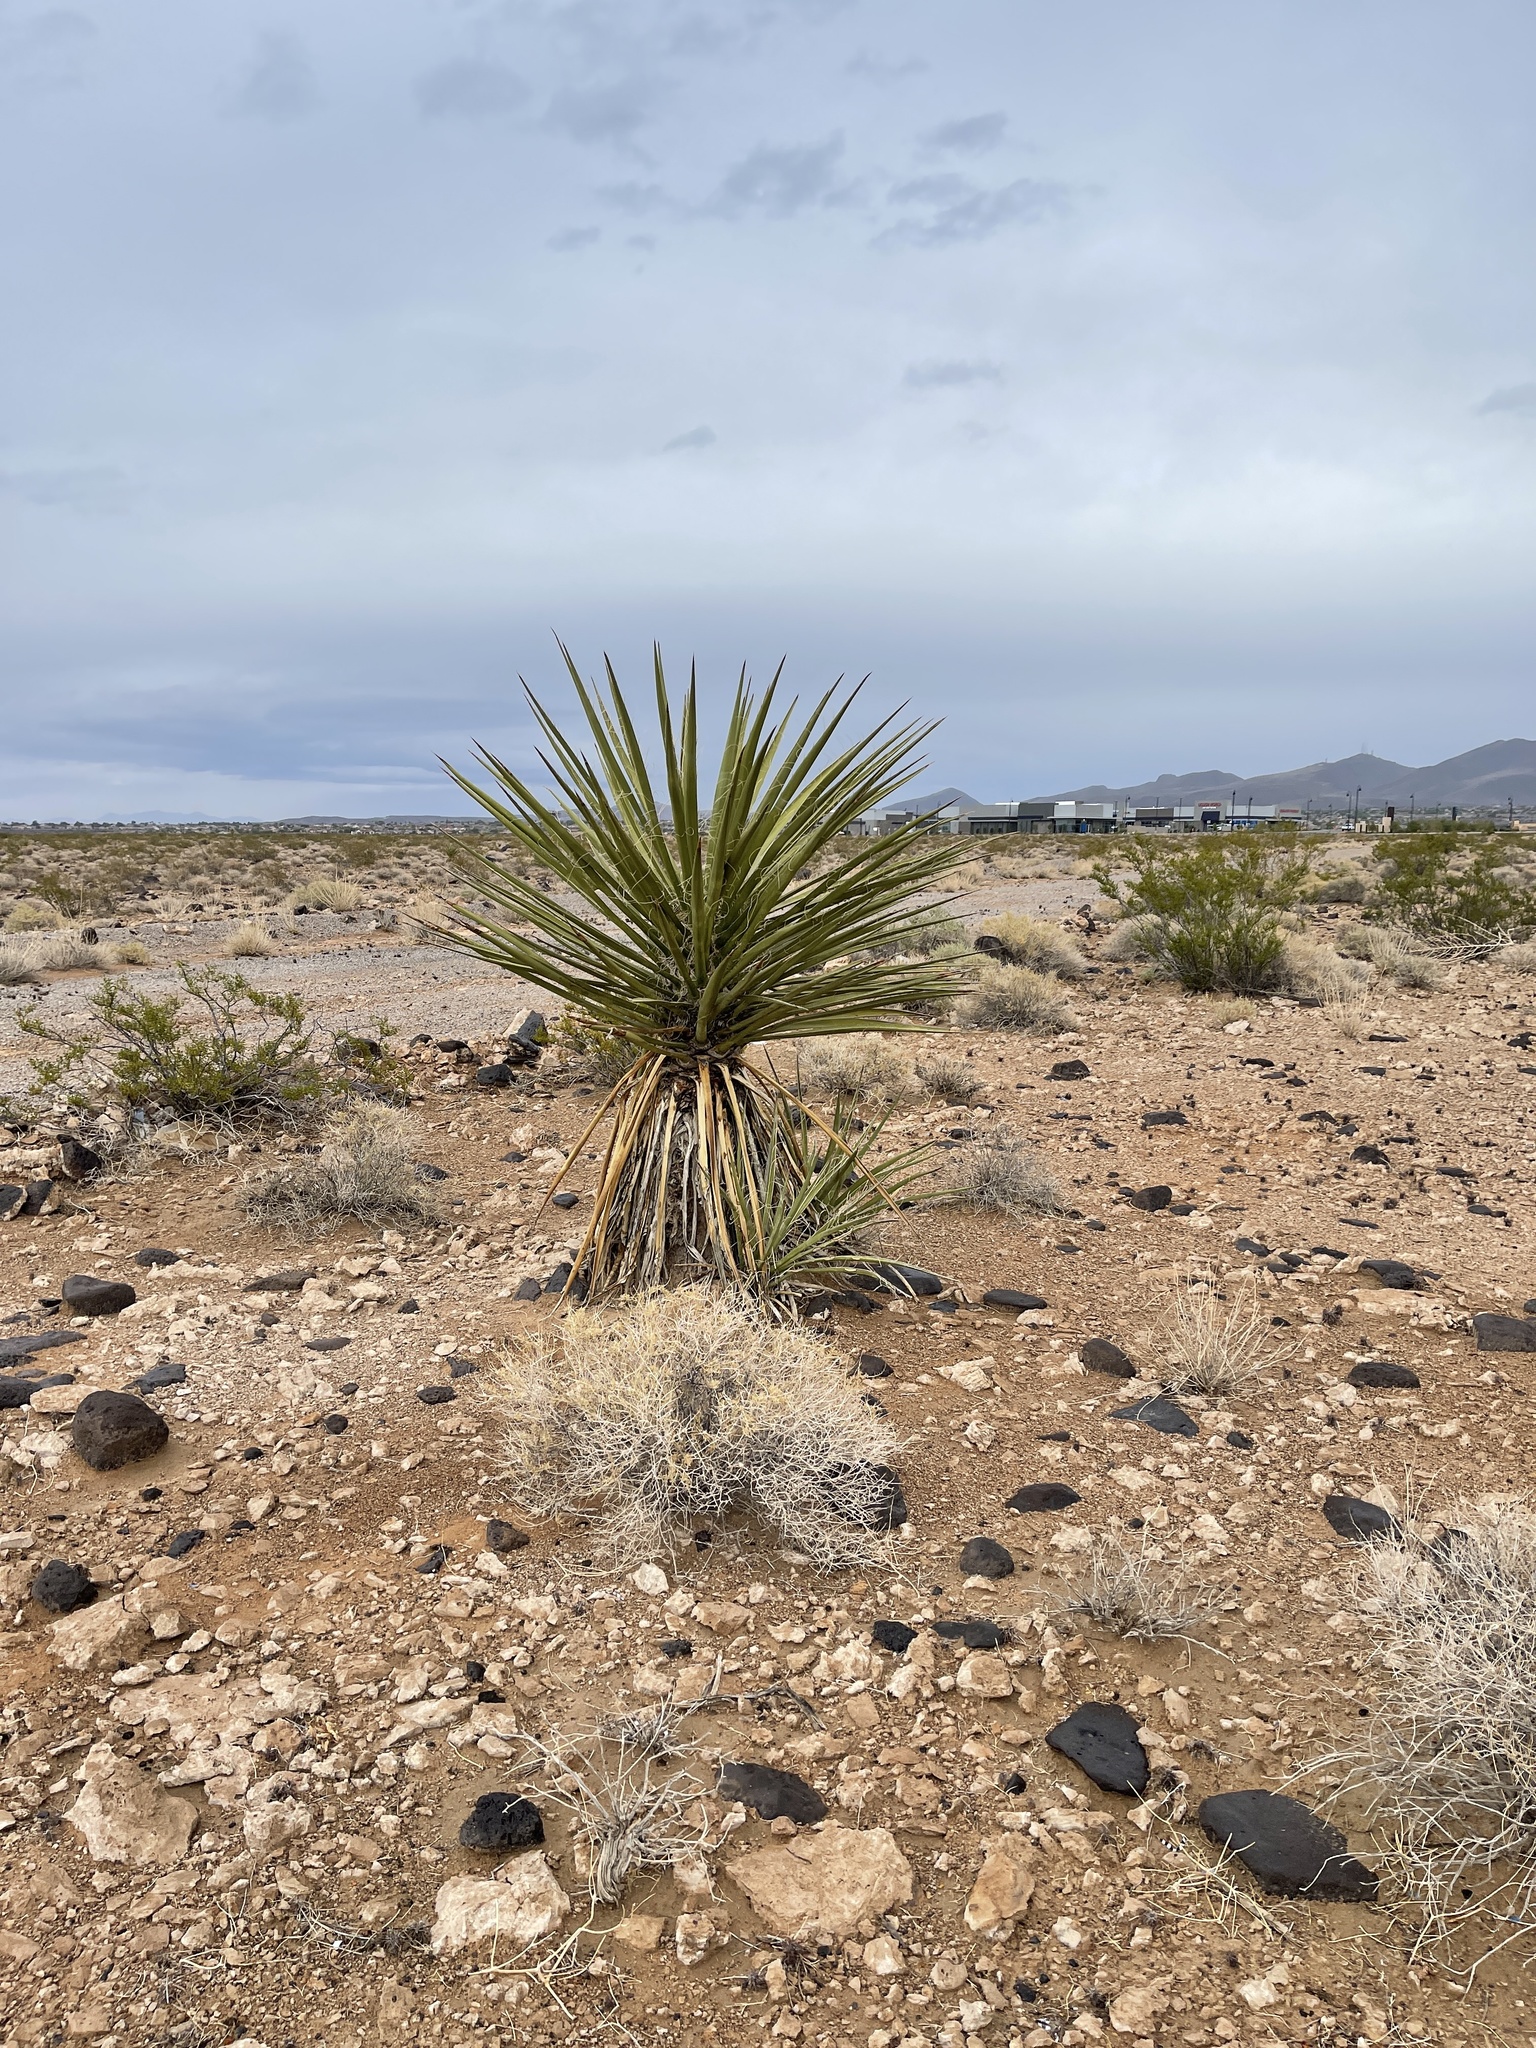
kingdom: Plantae
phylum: Tracheophyta
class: Liliopsida
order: Asparagales
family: Asparagaceae
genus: Yucca
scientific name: Yucca schidigera
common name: Mojave yucca
